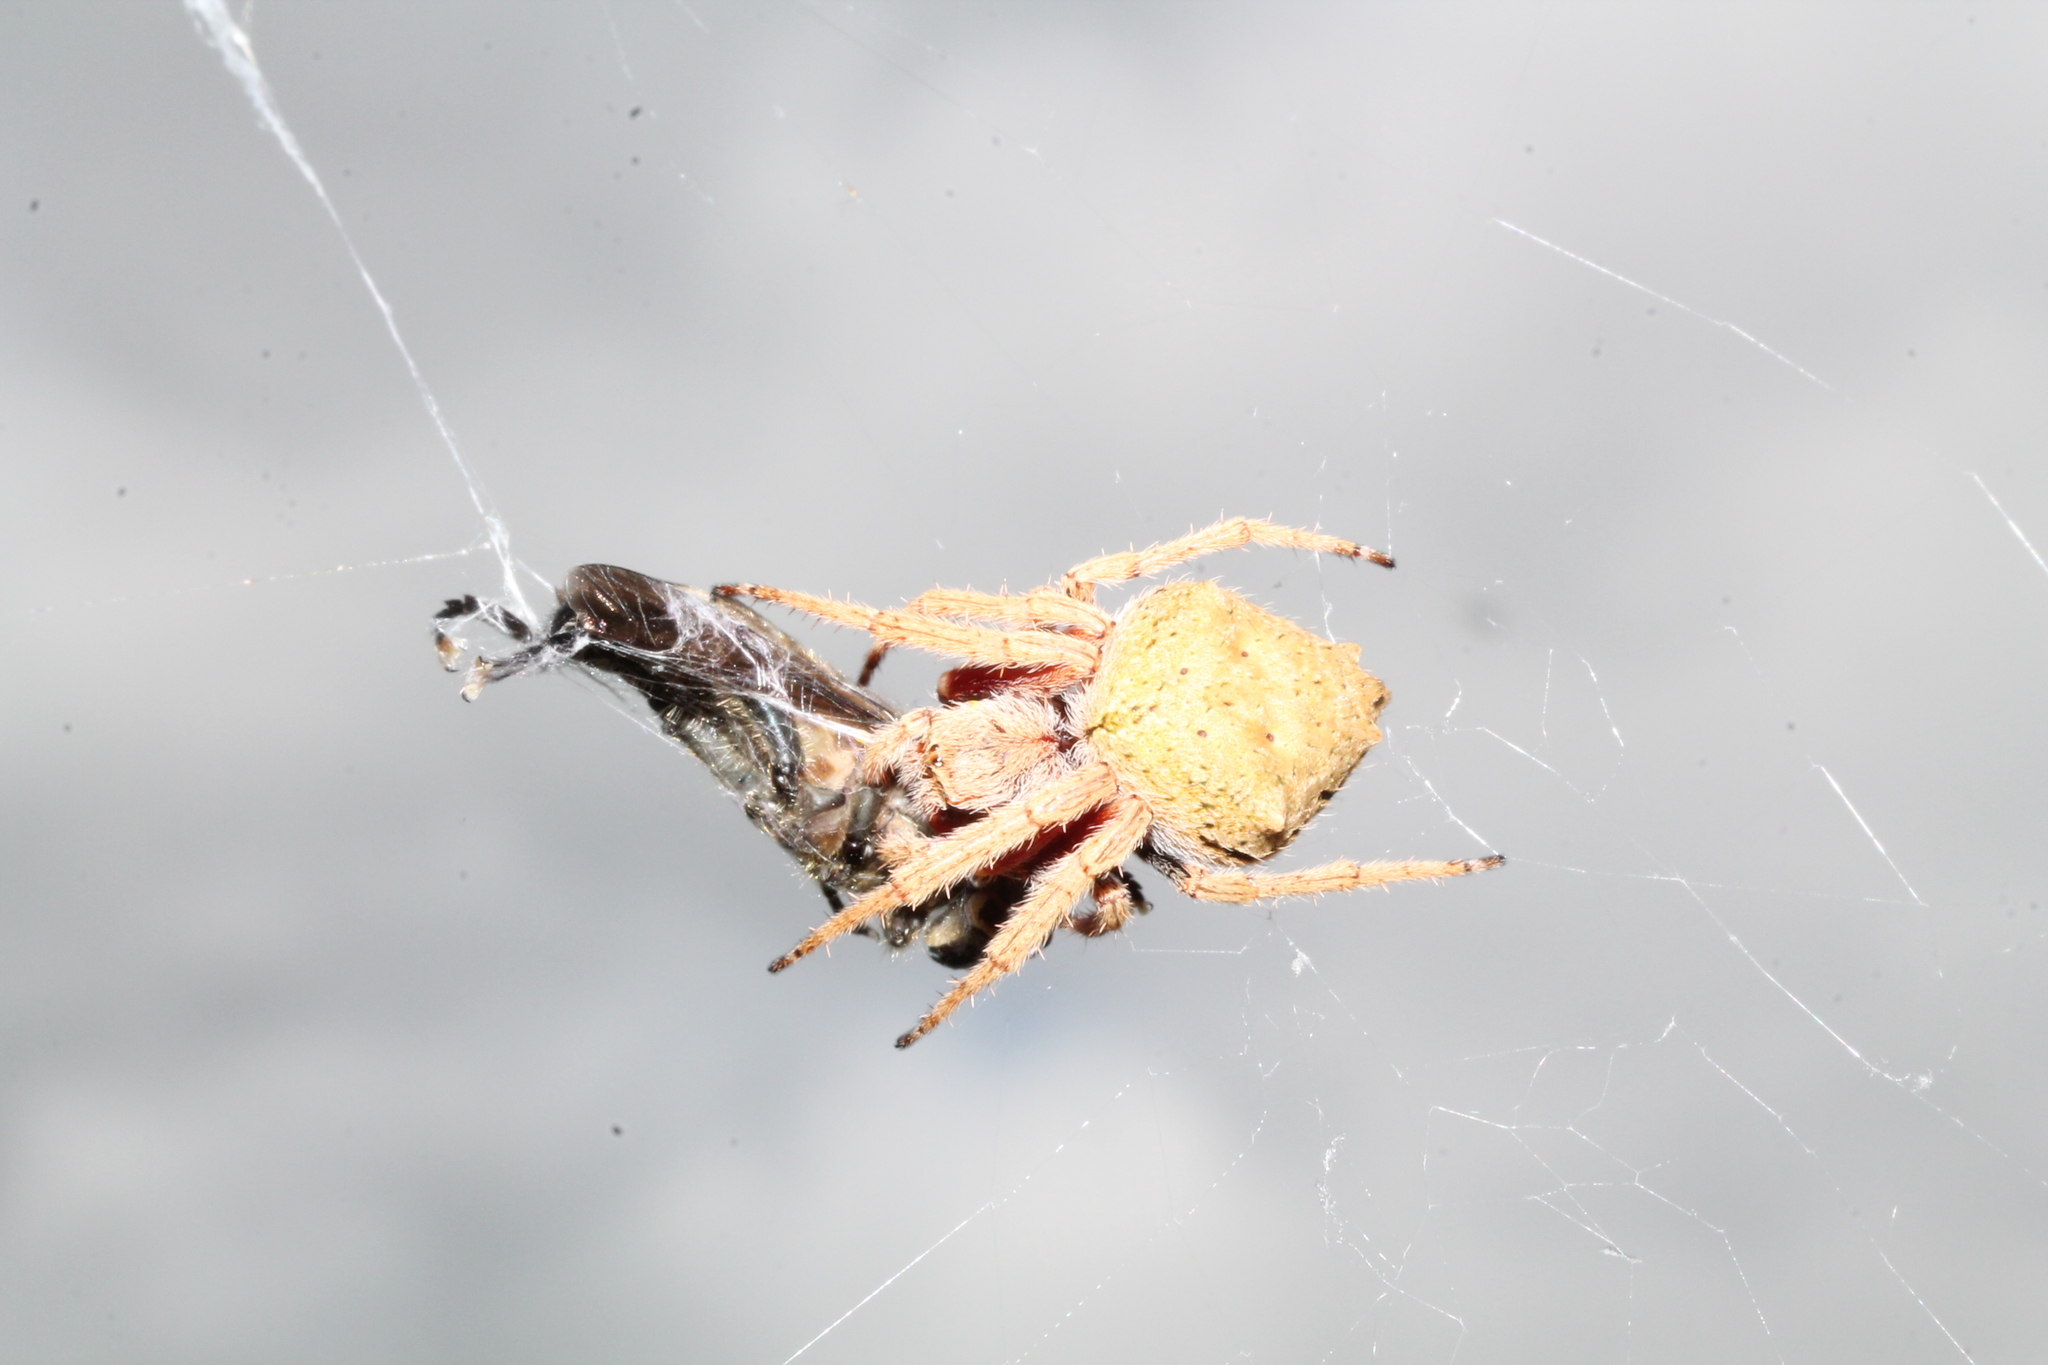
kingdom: Animalia
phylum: Arthropoda
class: Arachnida
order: Araneae
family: Araneidae
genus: Eriophora
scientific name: Eriophora pustulosa
